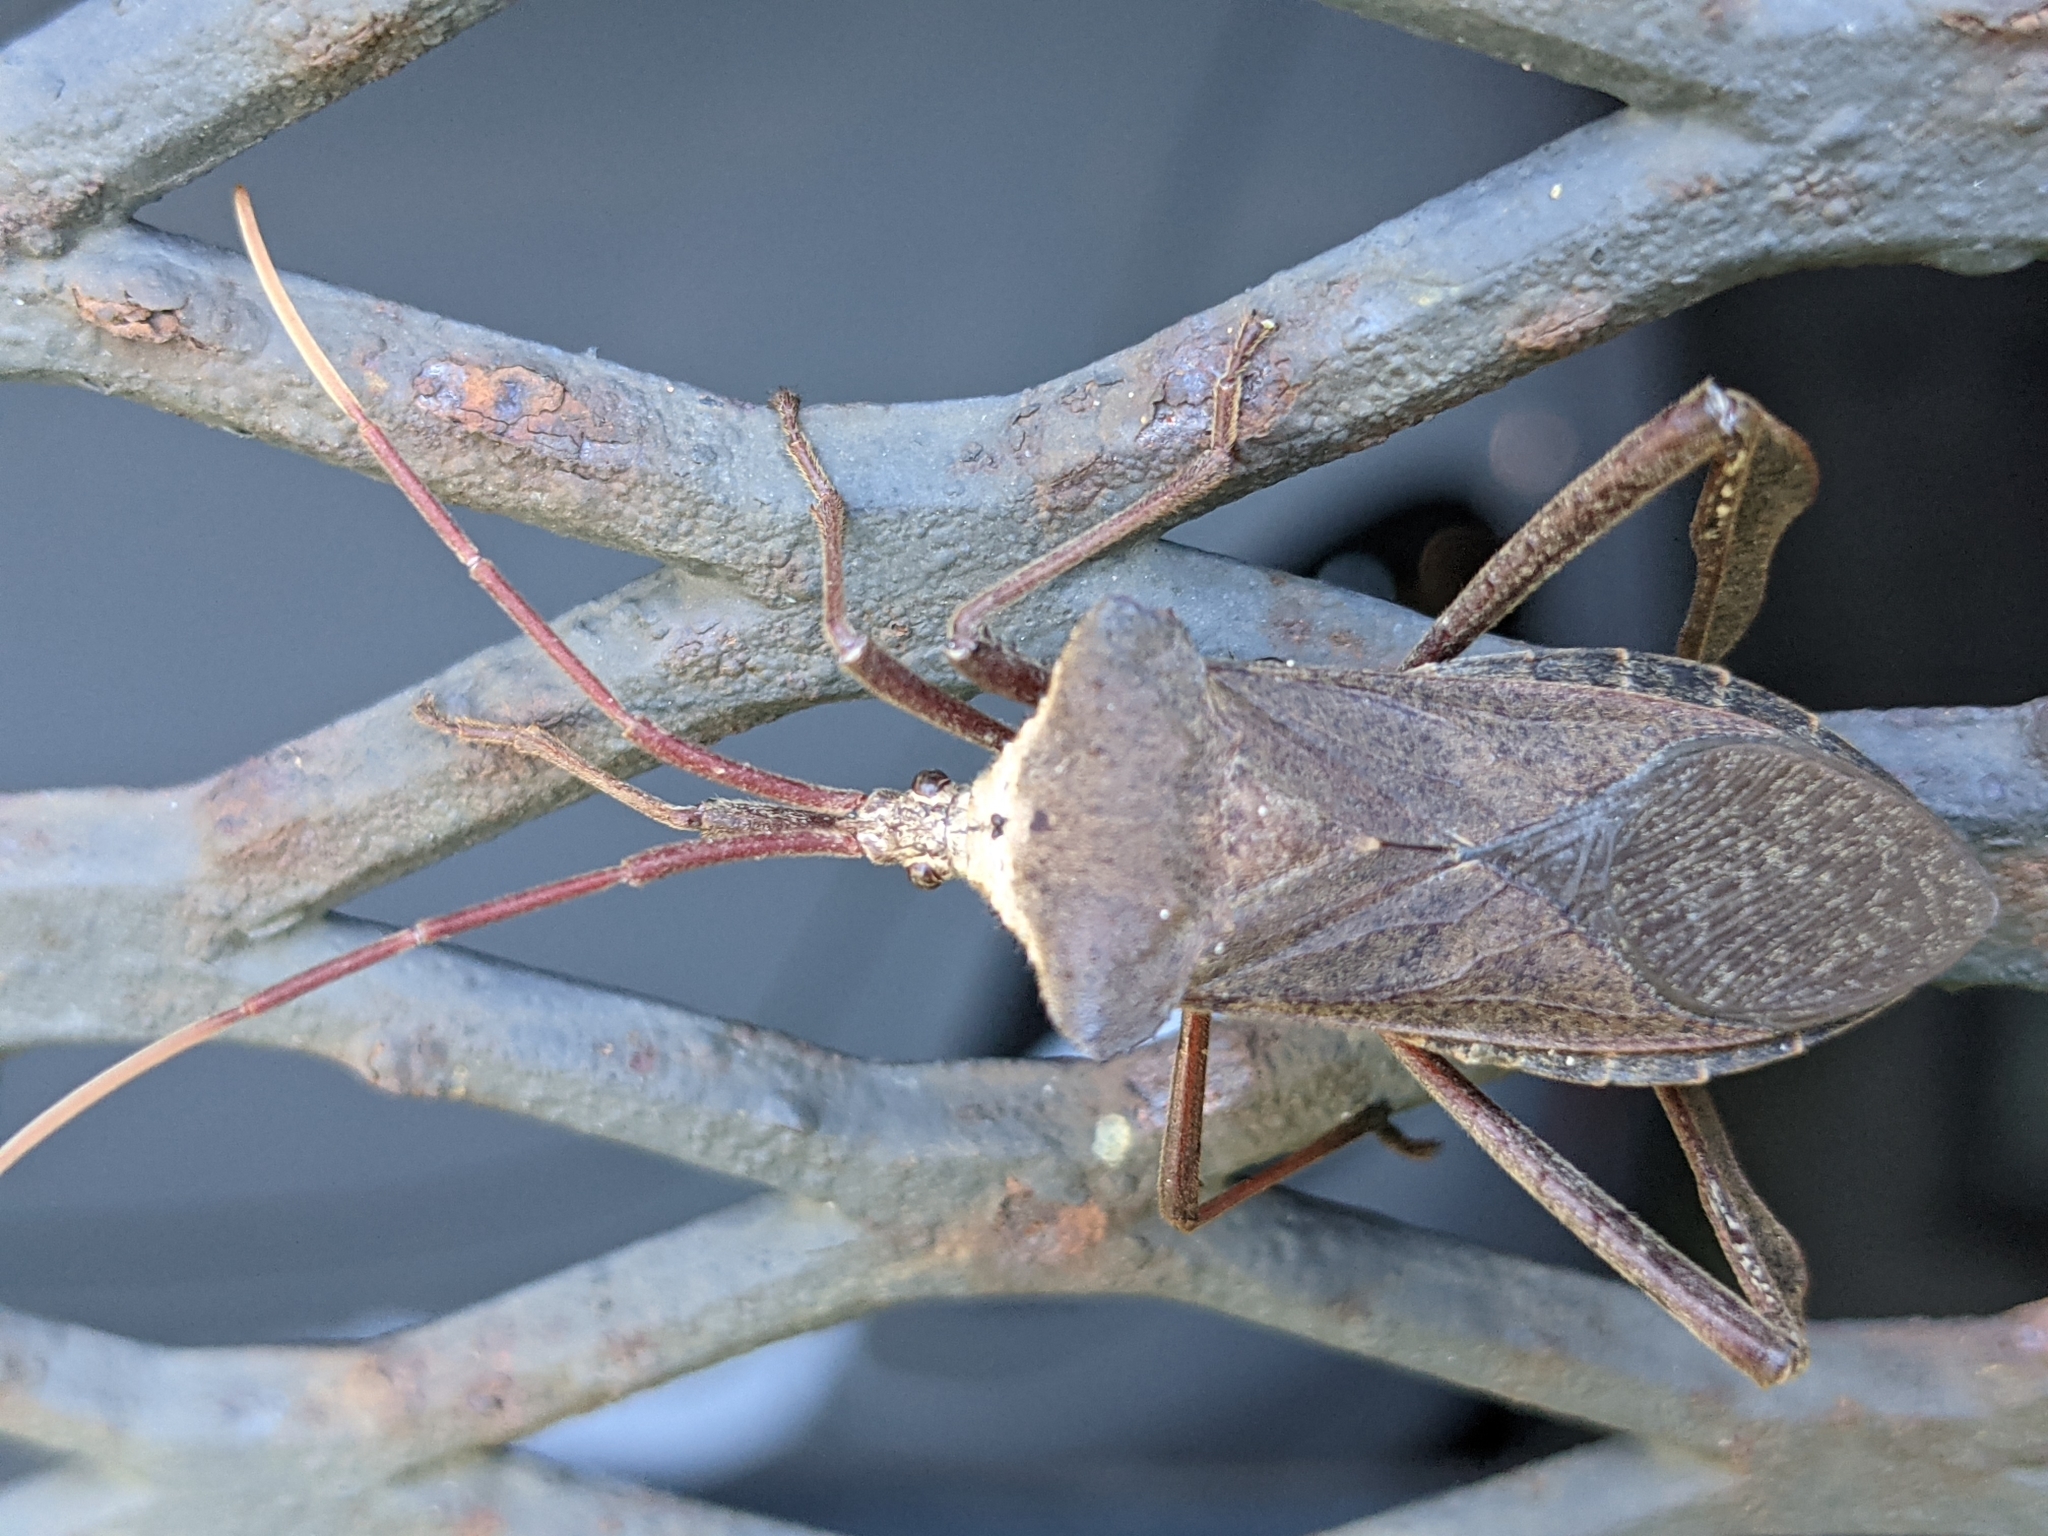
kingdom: Animalia
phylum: Arthropoda
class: Insecta
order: Hemiptera
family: Coreidae
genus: Acanthocephala
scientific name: Acanthocephala declivis
